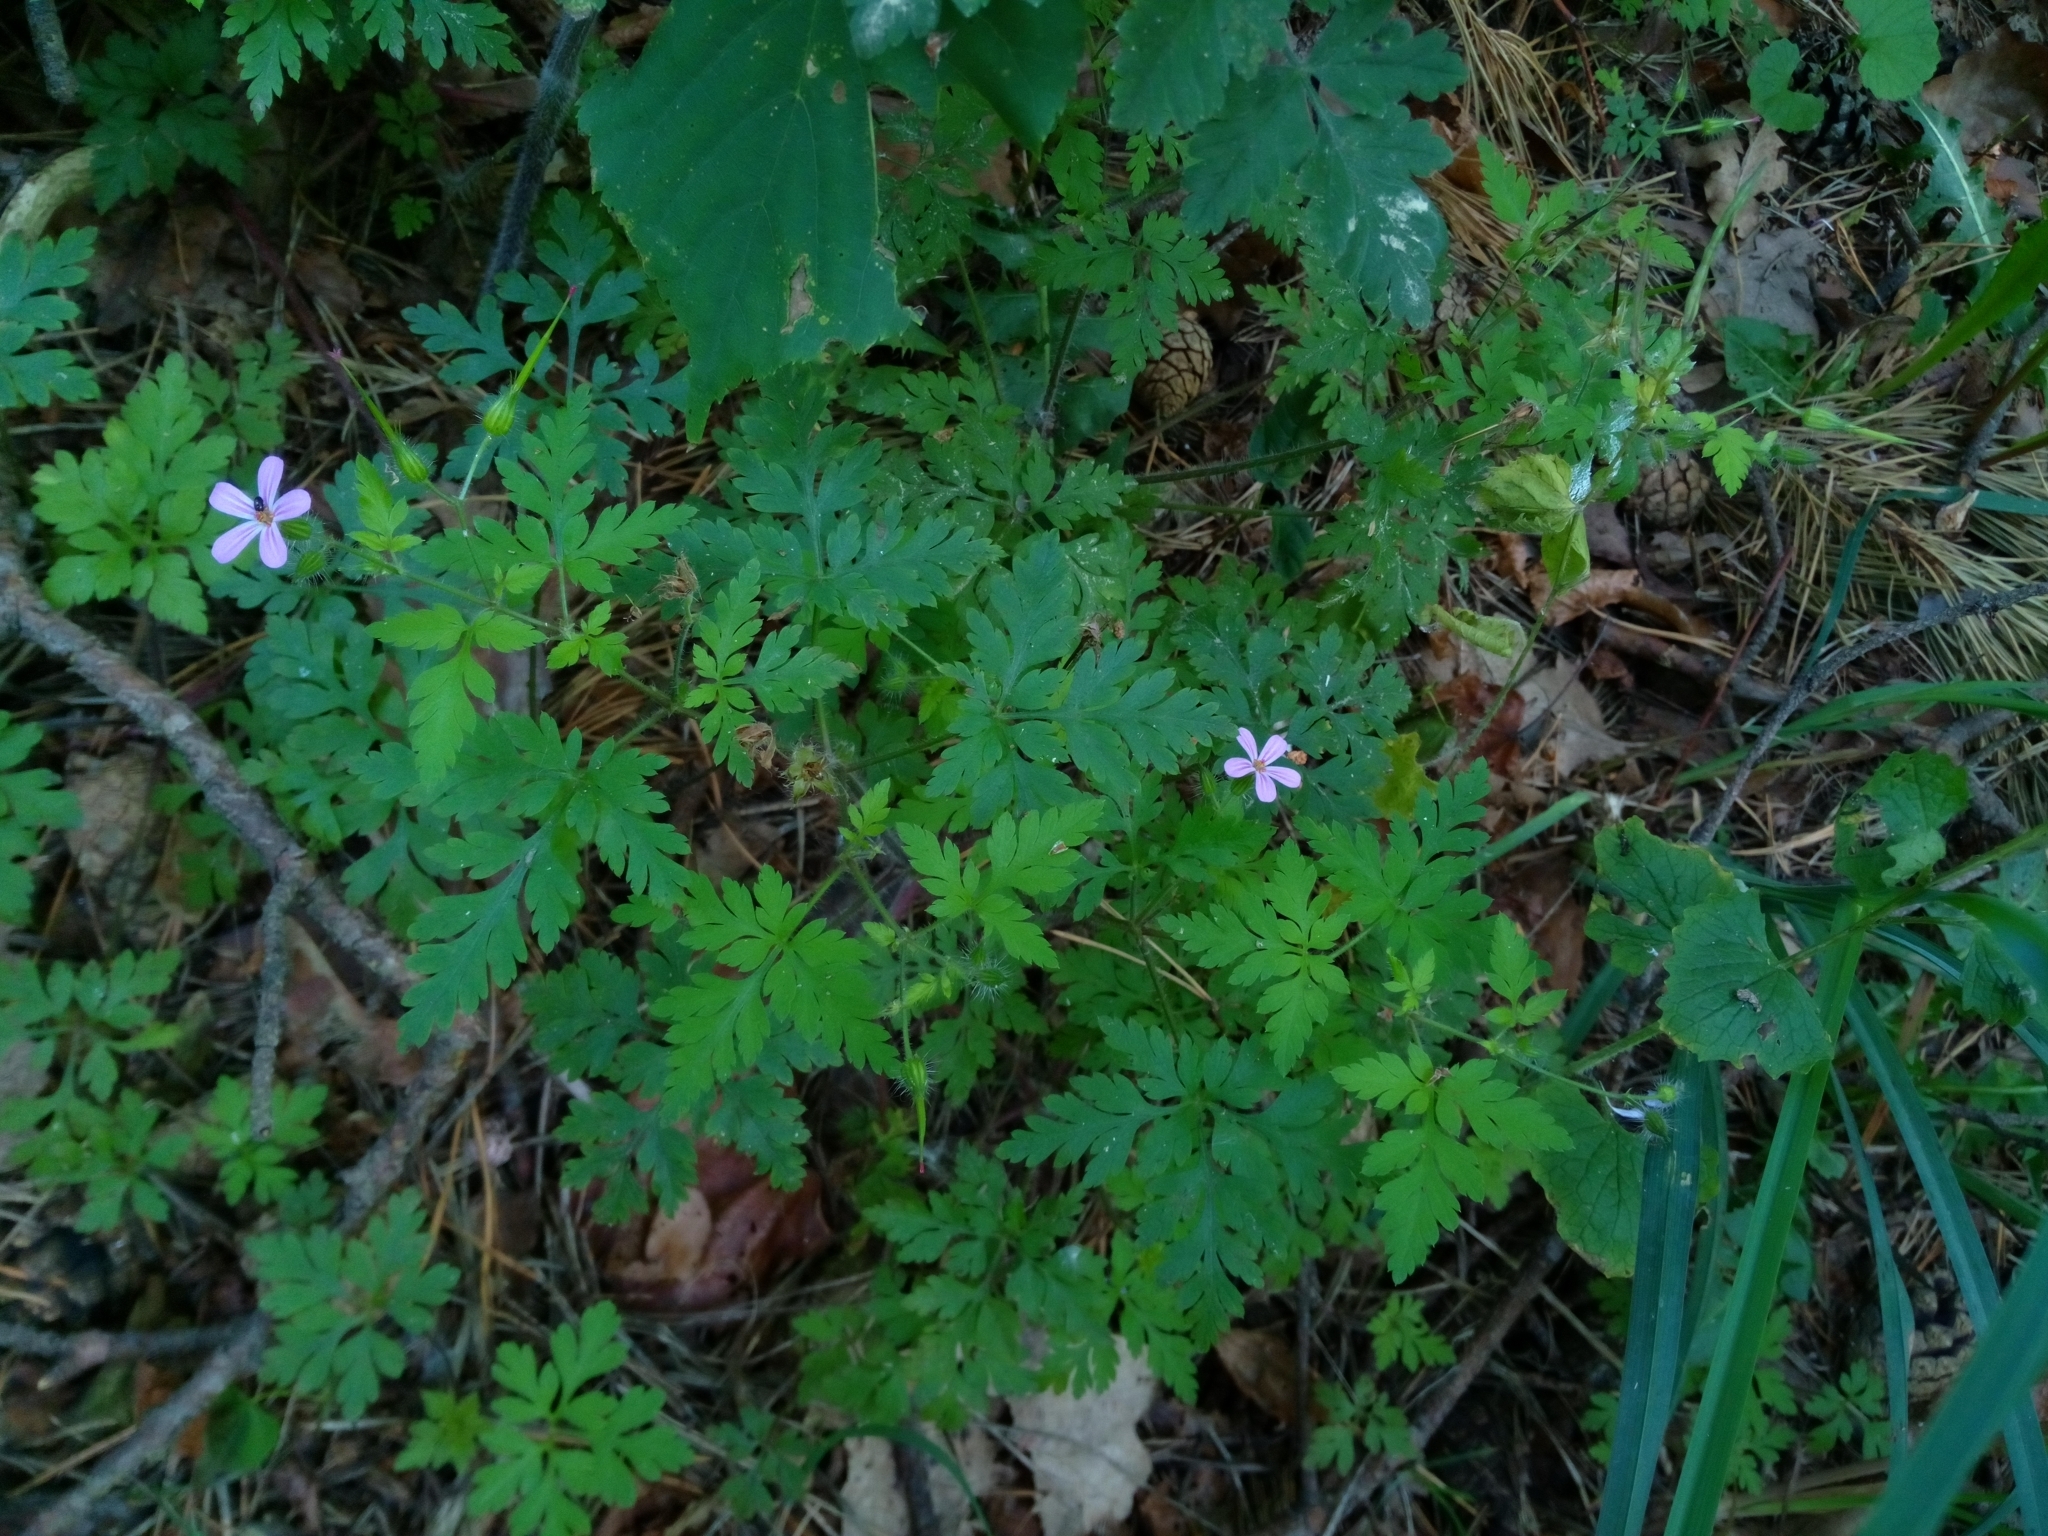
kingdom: Plantae
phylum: Tracheophyta
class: Magnoliopsida
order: Geraniales
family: Geraniaceae
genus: Geranium
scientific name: Geranium robertianum
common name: Herb-robert
